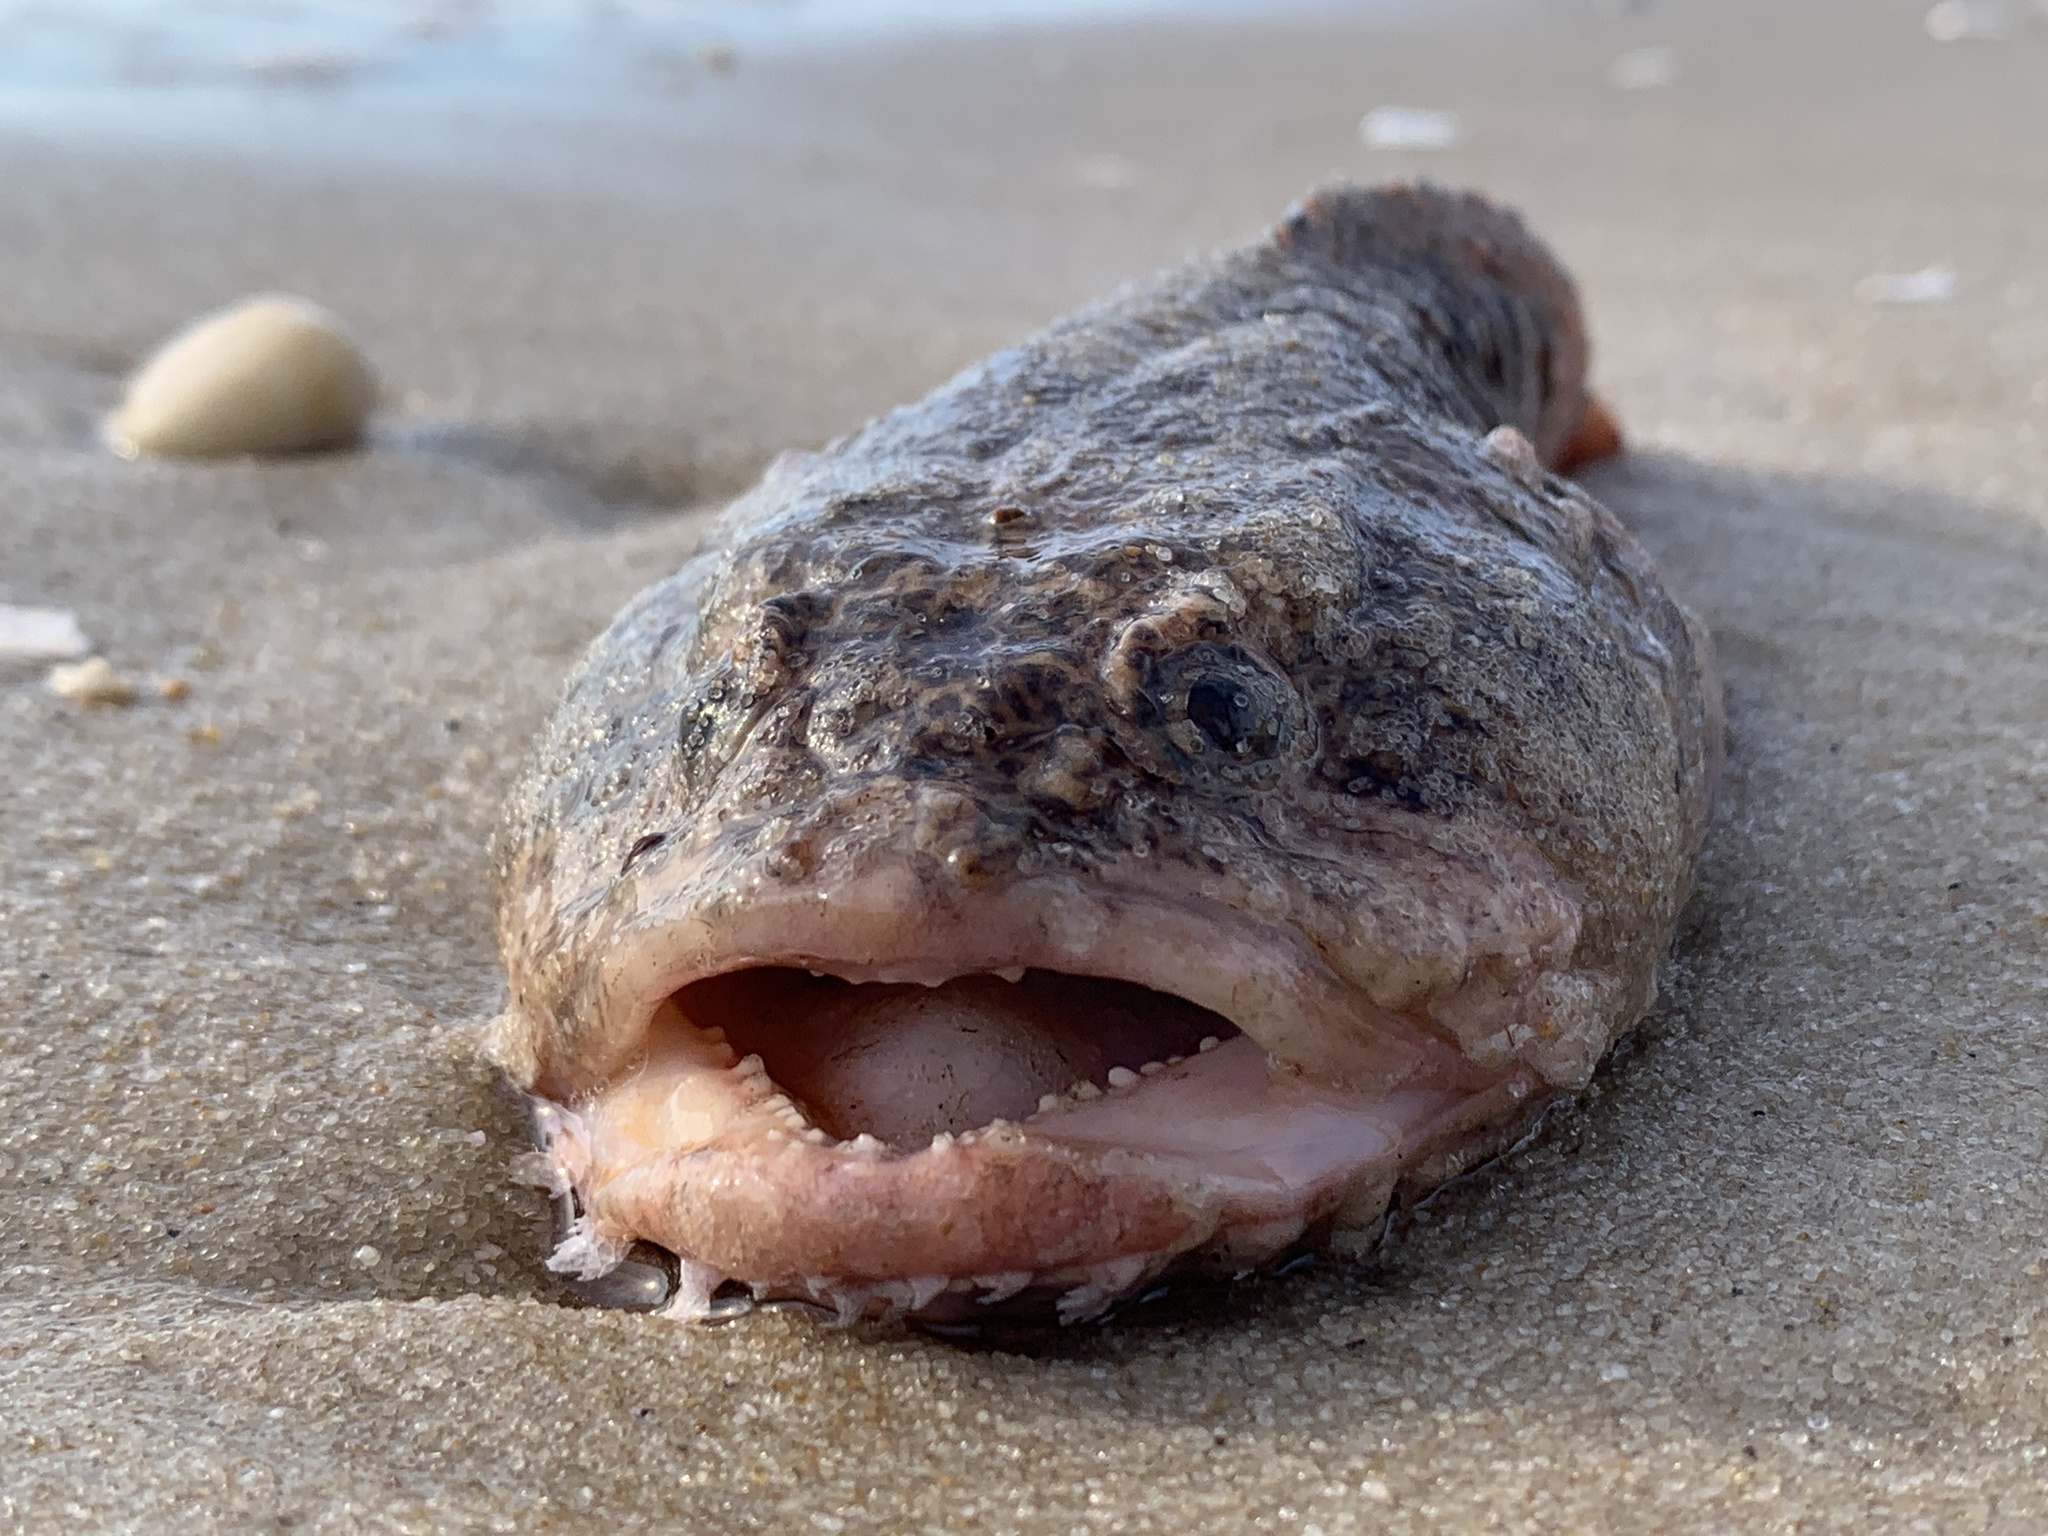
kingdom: Animalia
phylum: Chordata
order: Batrachoidiformes
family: Batrachoididae
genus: Opsanus
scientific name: Opsanus tau
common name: Oyster toadfish
